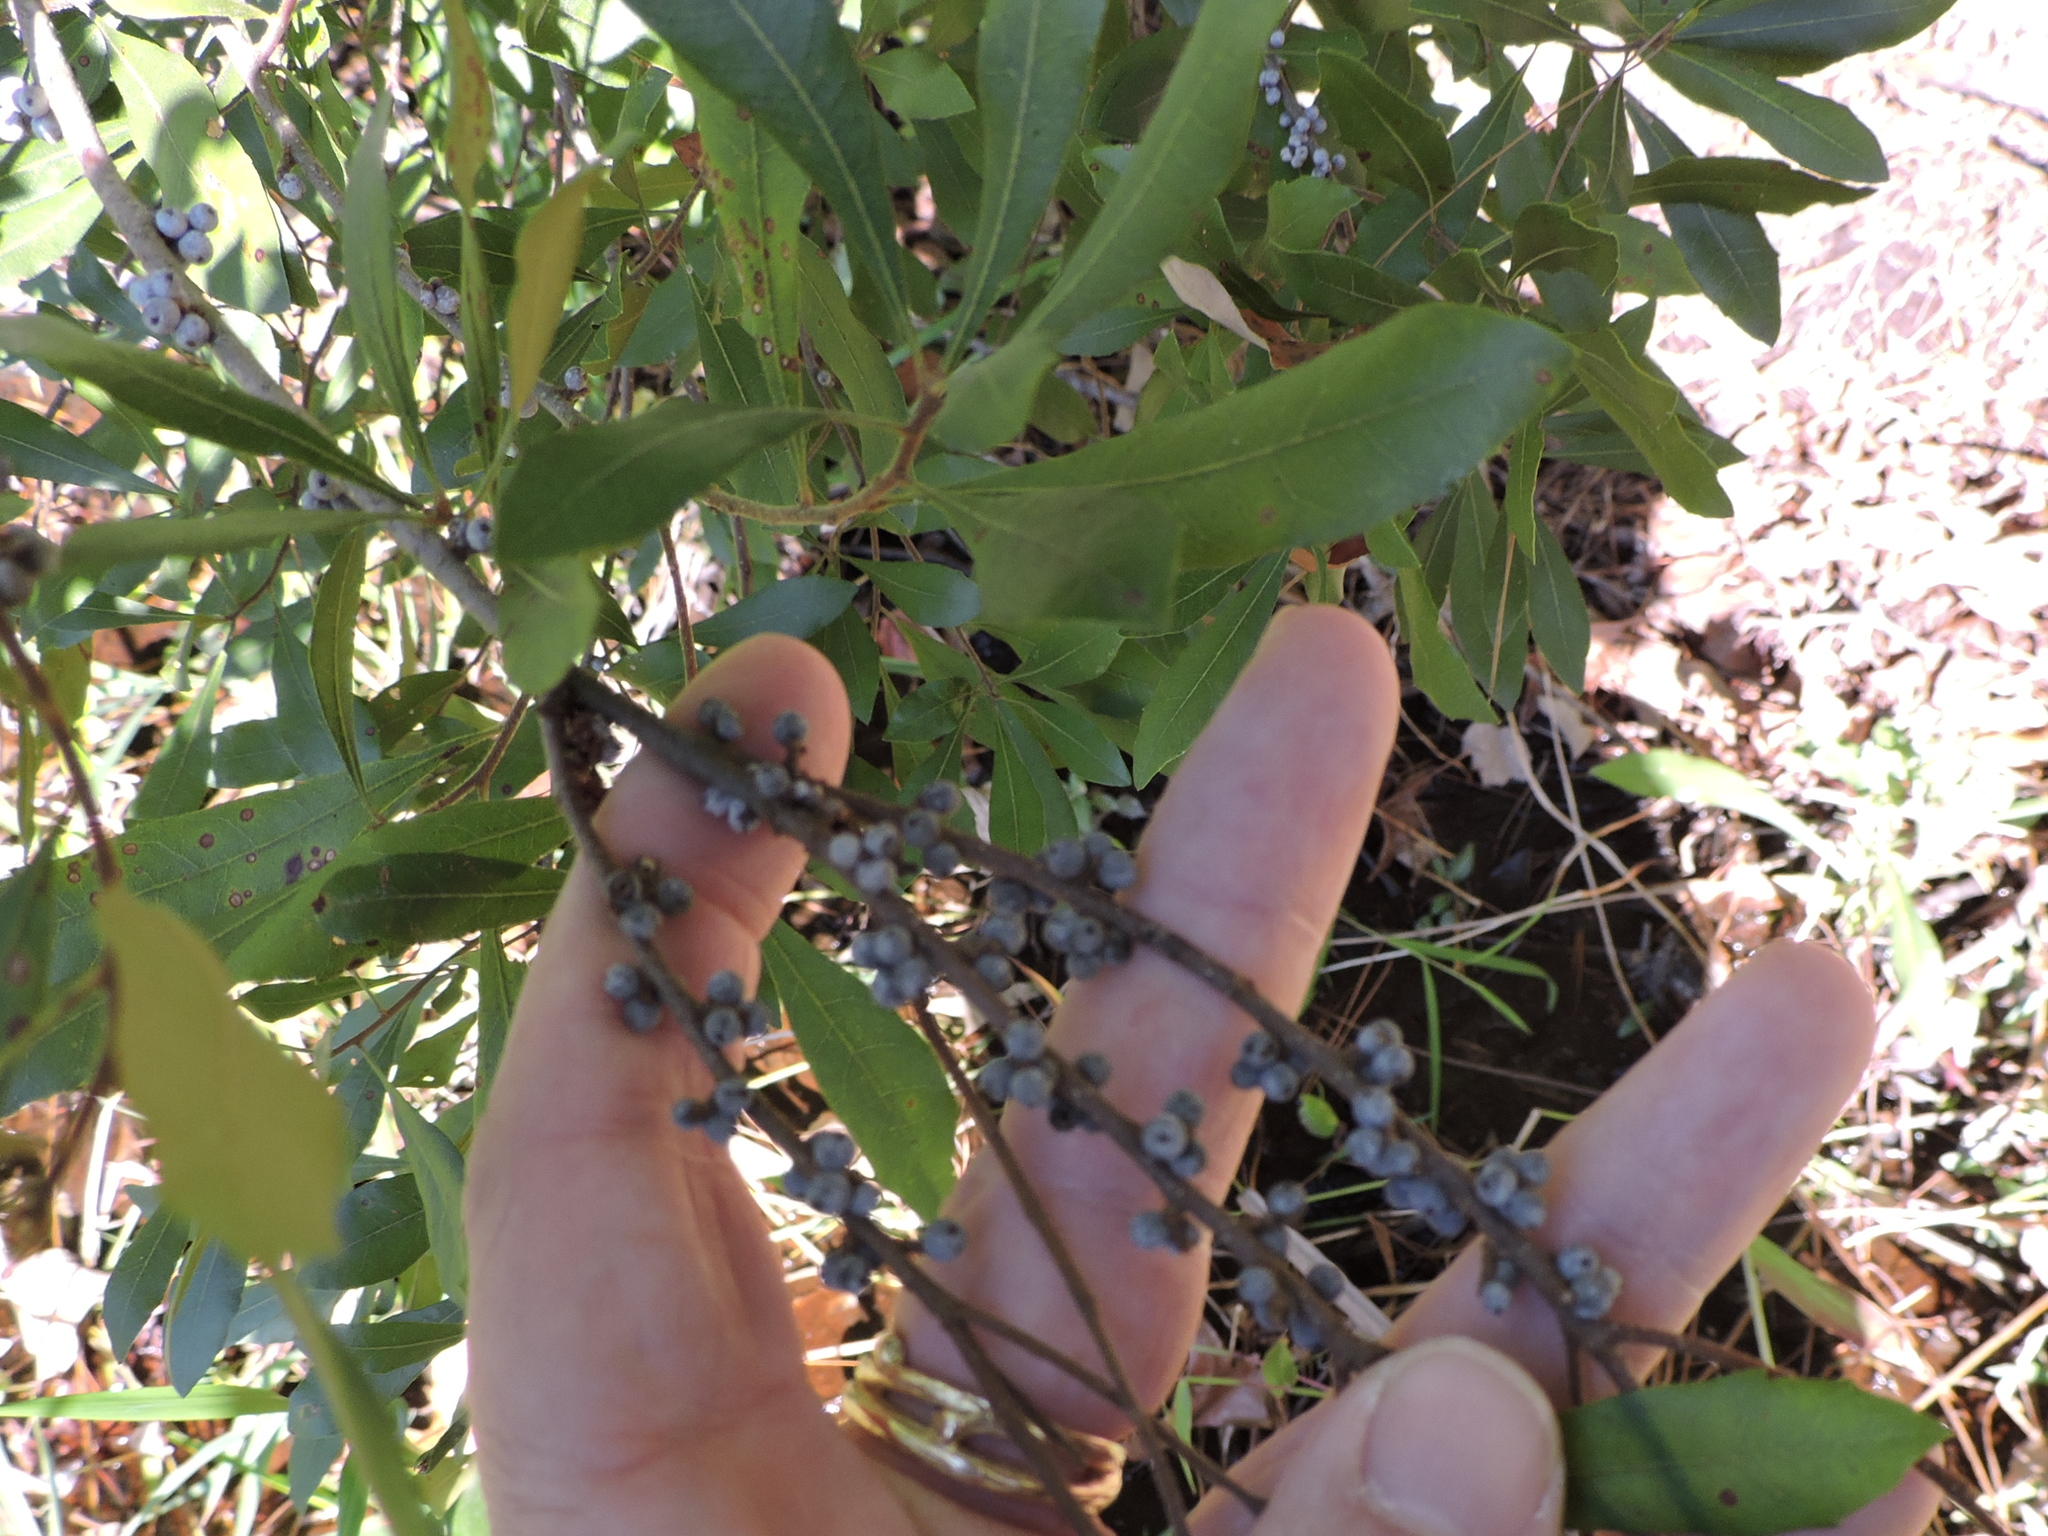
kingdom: Plantae
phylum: Tracheophyta
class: Magnoliopsida
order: Fagales
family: Myricaceae
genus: Morella
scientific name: Morella cerifera
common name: Wax myrtle
